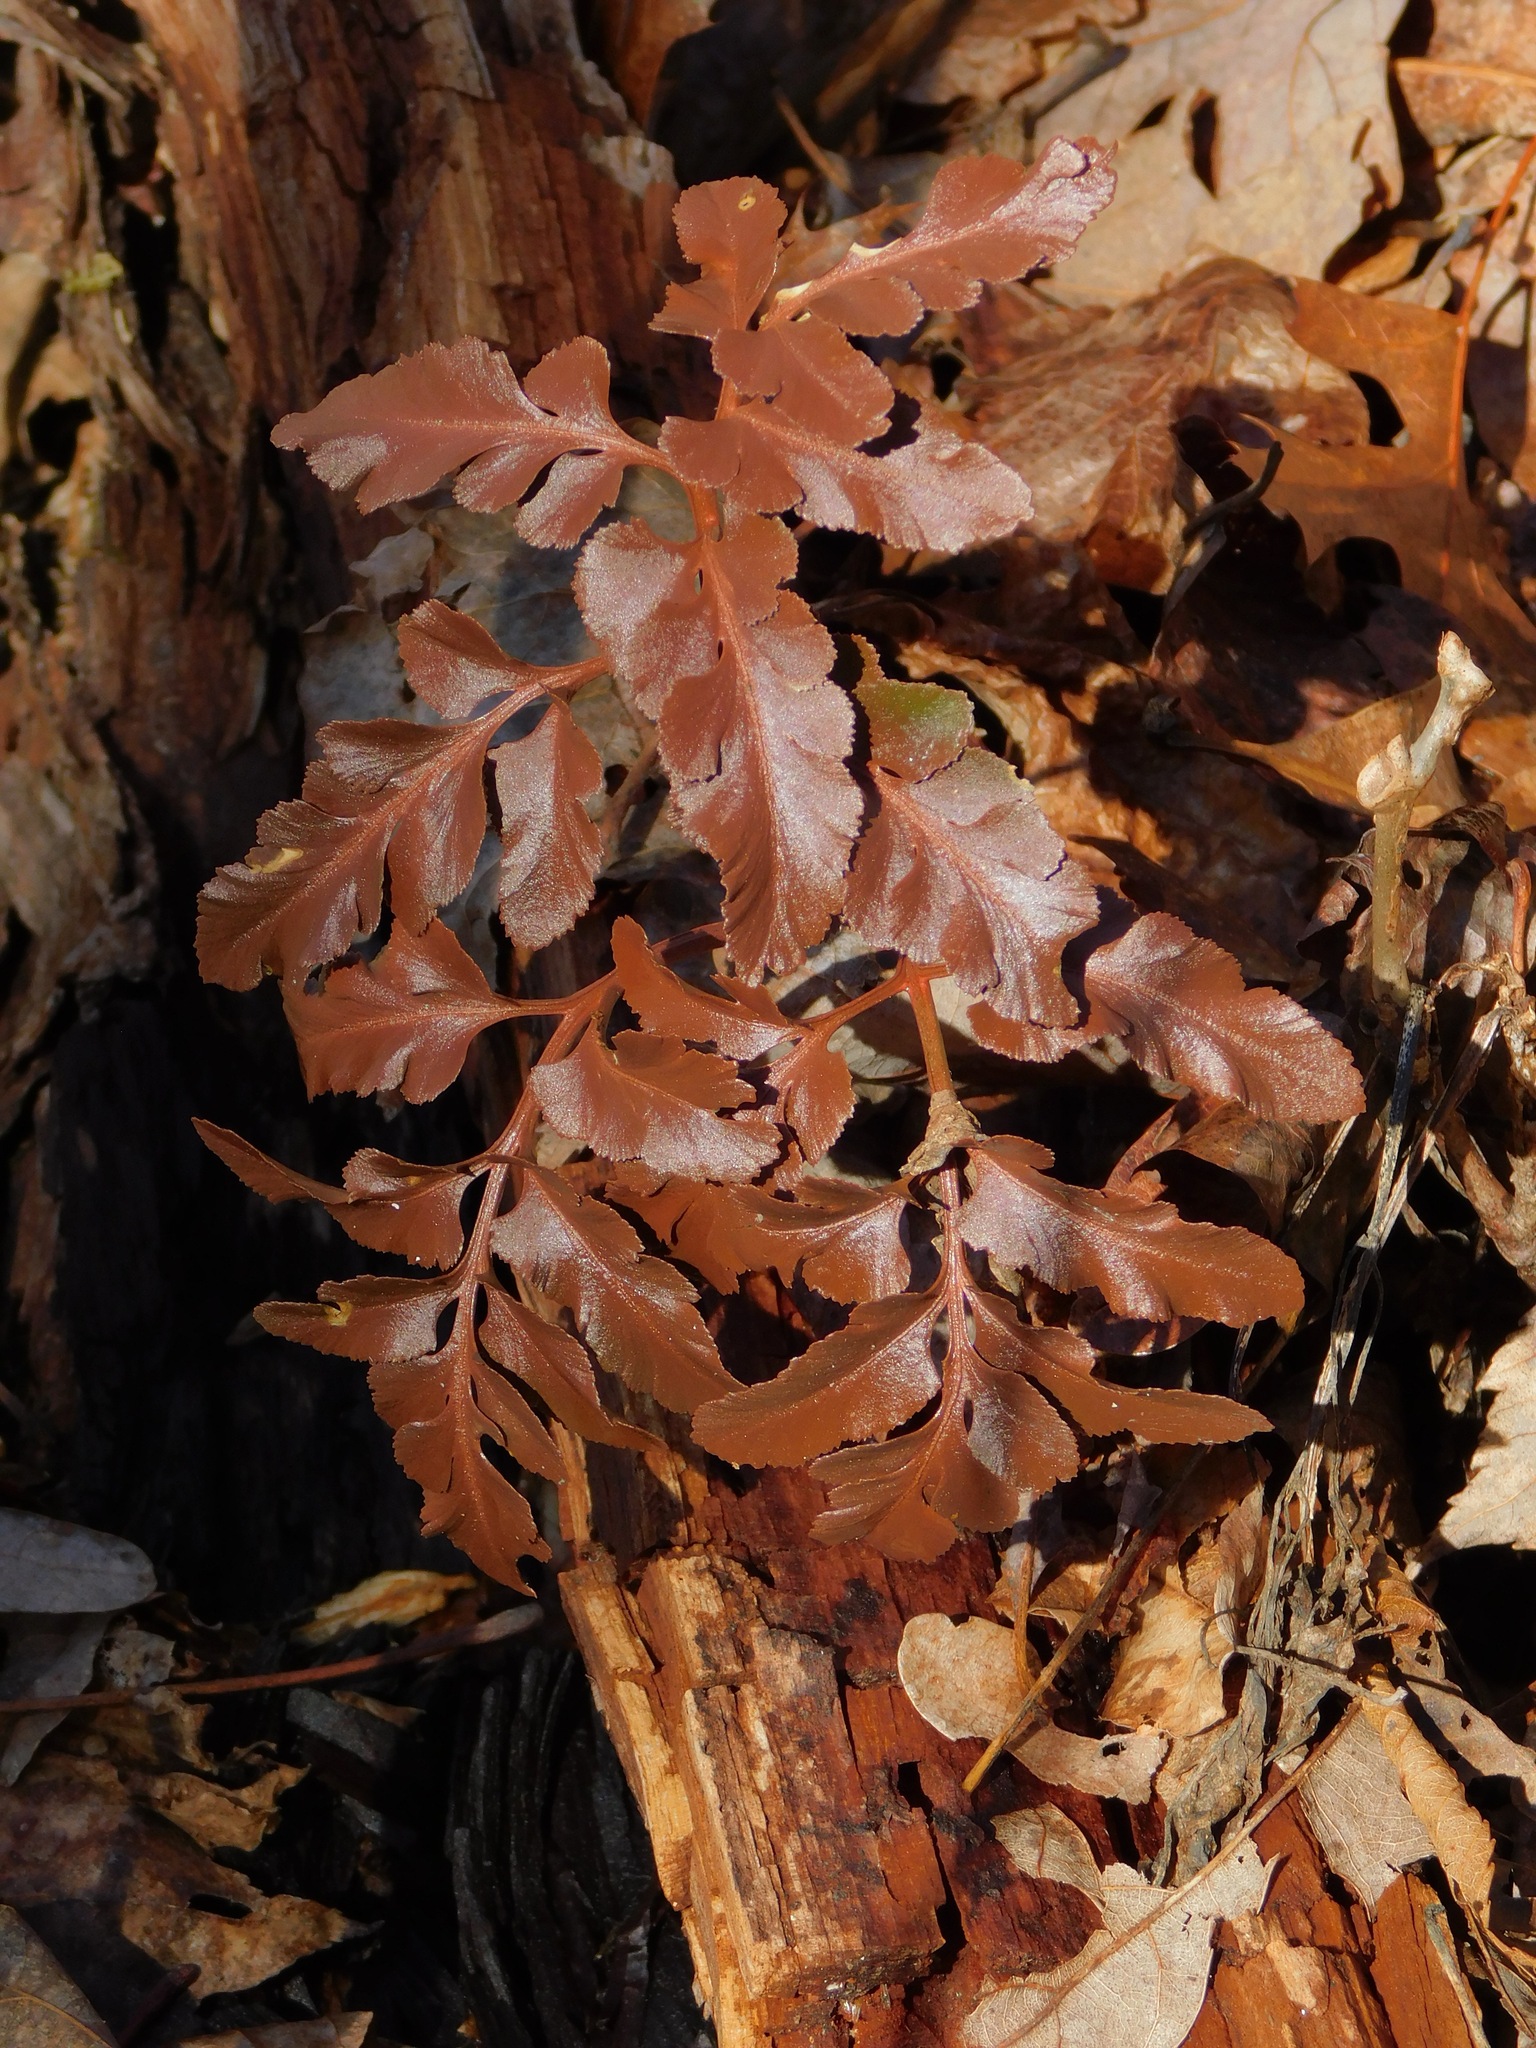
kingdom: Plantae
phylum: Tracheophyta
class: Polypodiopsida
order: Ophioglossales
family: Ophioglossaceae
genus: Sceptridium
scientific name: Sceptridium multifidum
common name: Leathery grape fern
